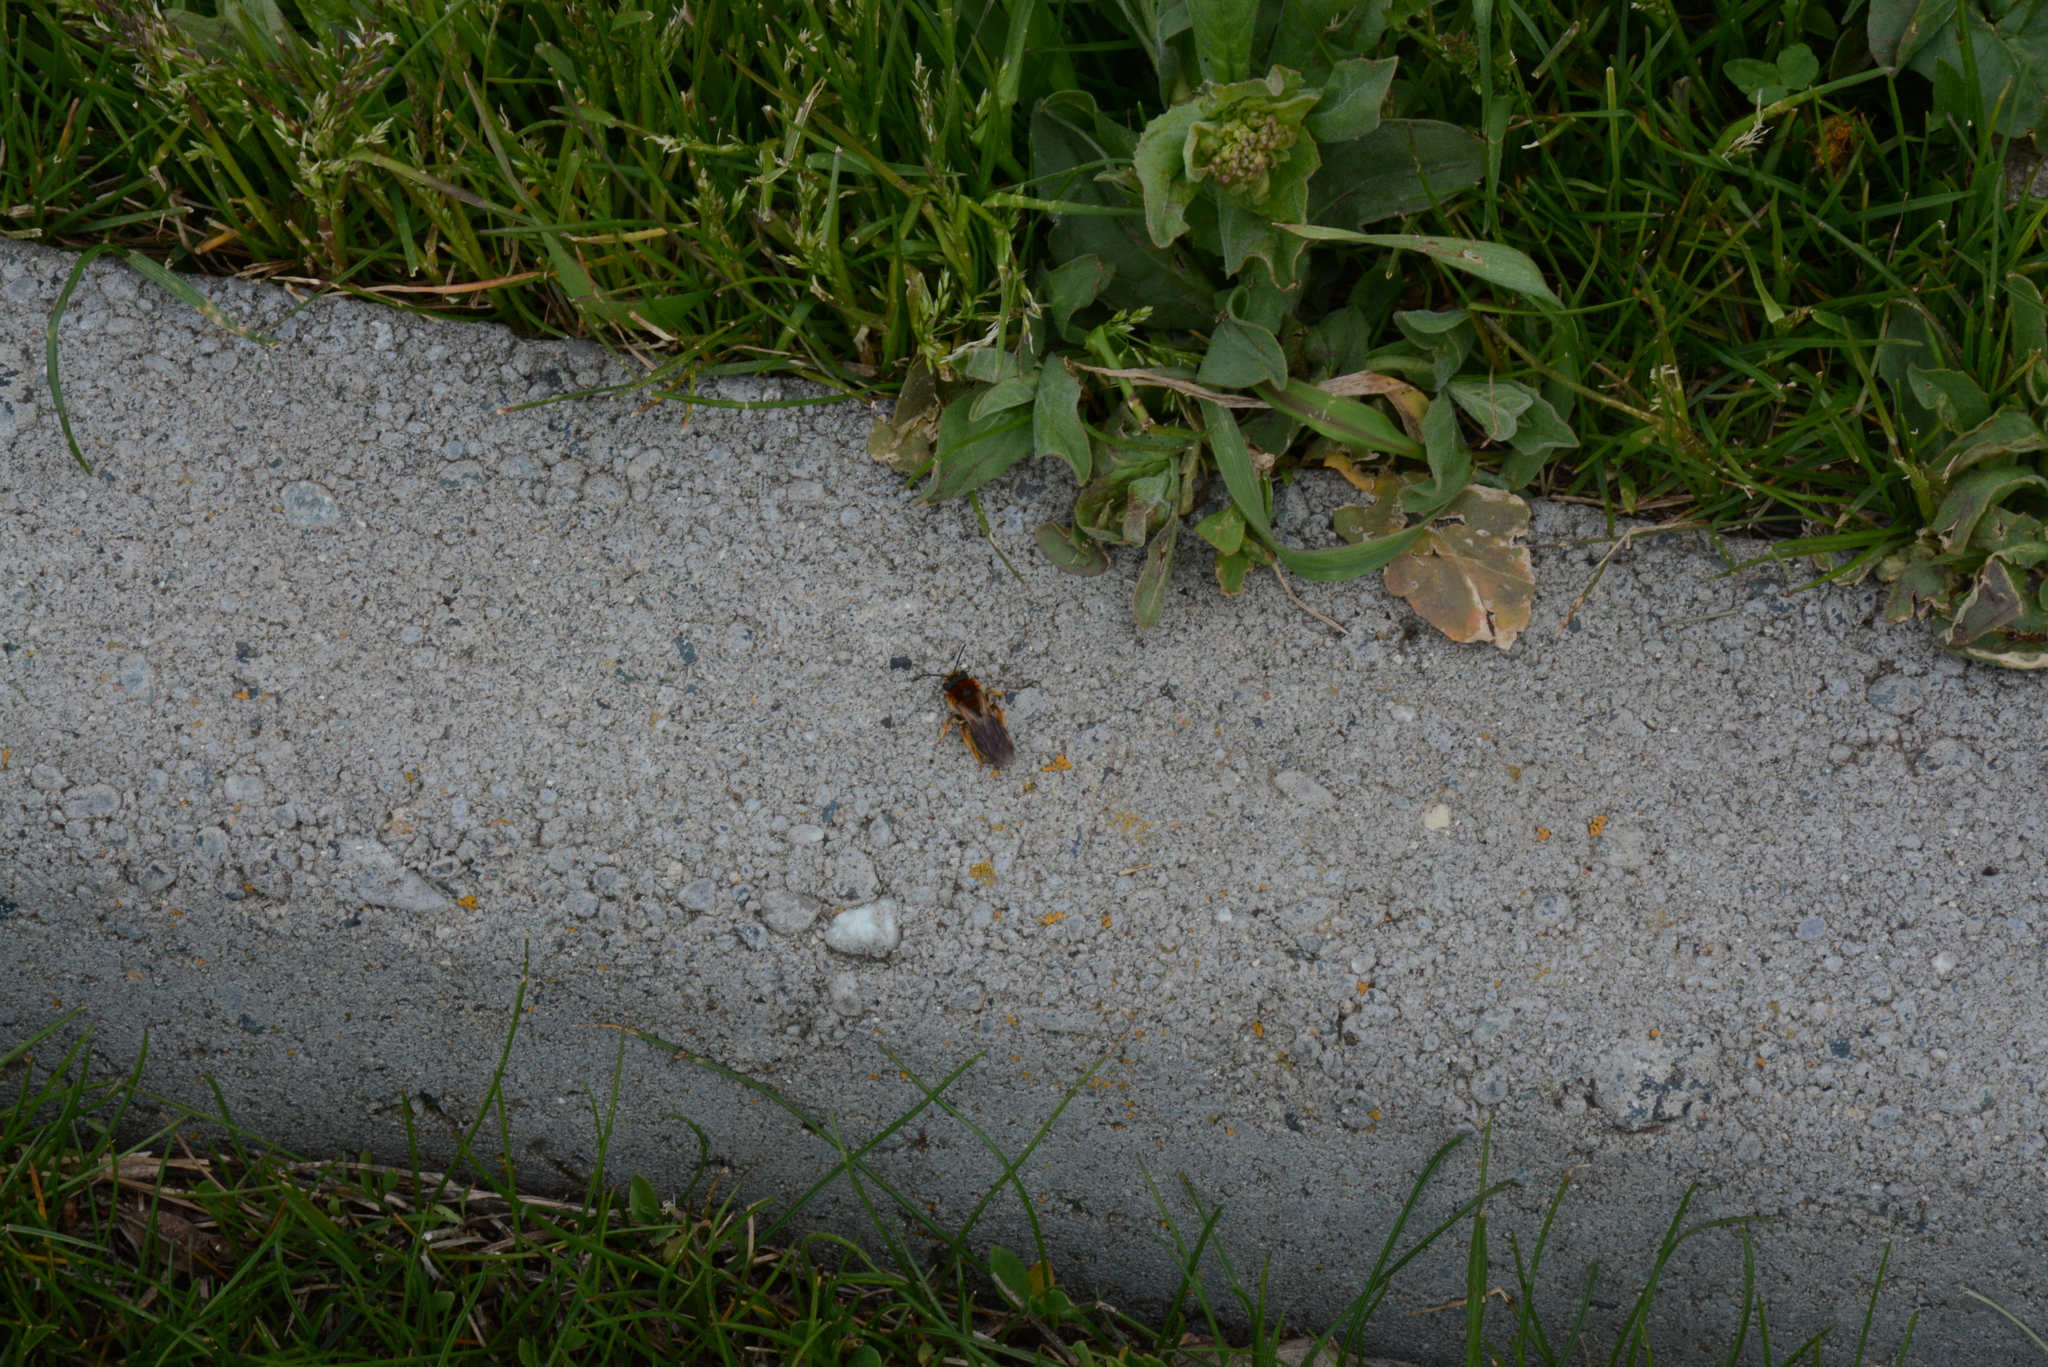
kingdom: Animalia
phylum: Arthropoda
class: Insecta
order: Hymenoptera
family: Andrenidae
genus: Andrena
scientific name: Andrena haemorrhoa
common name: Early mining bee
